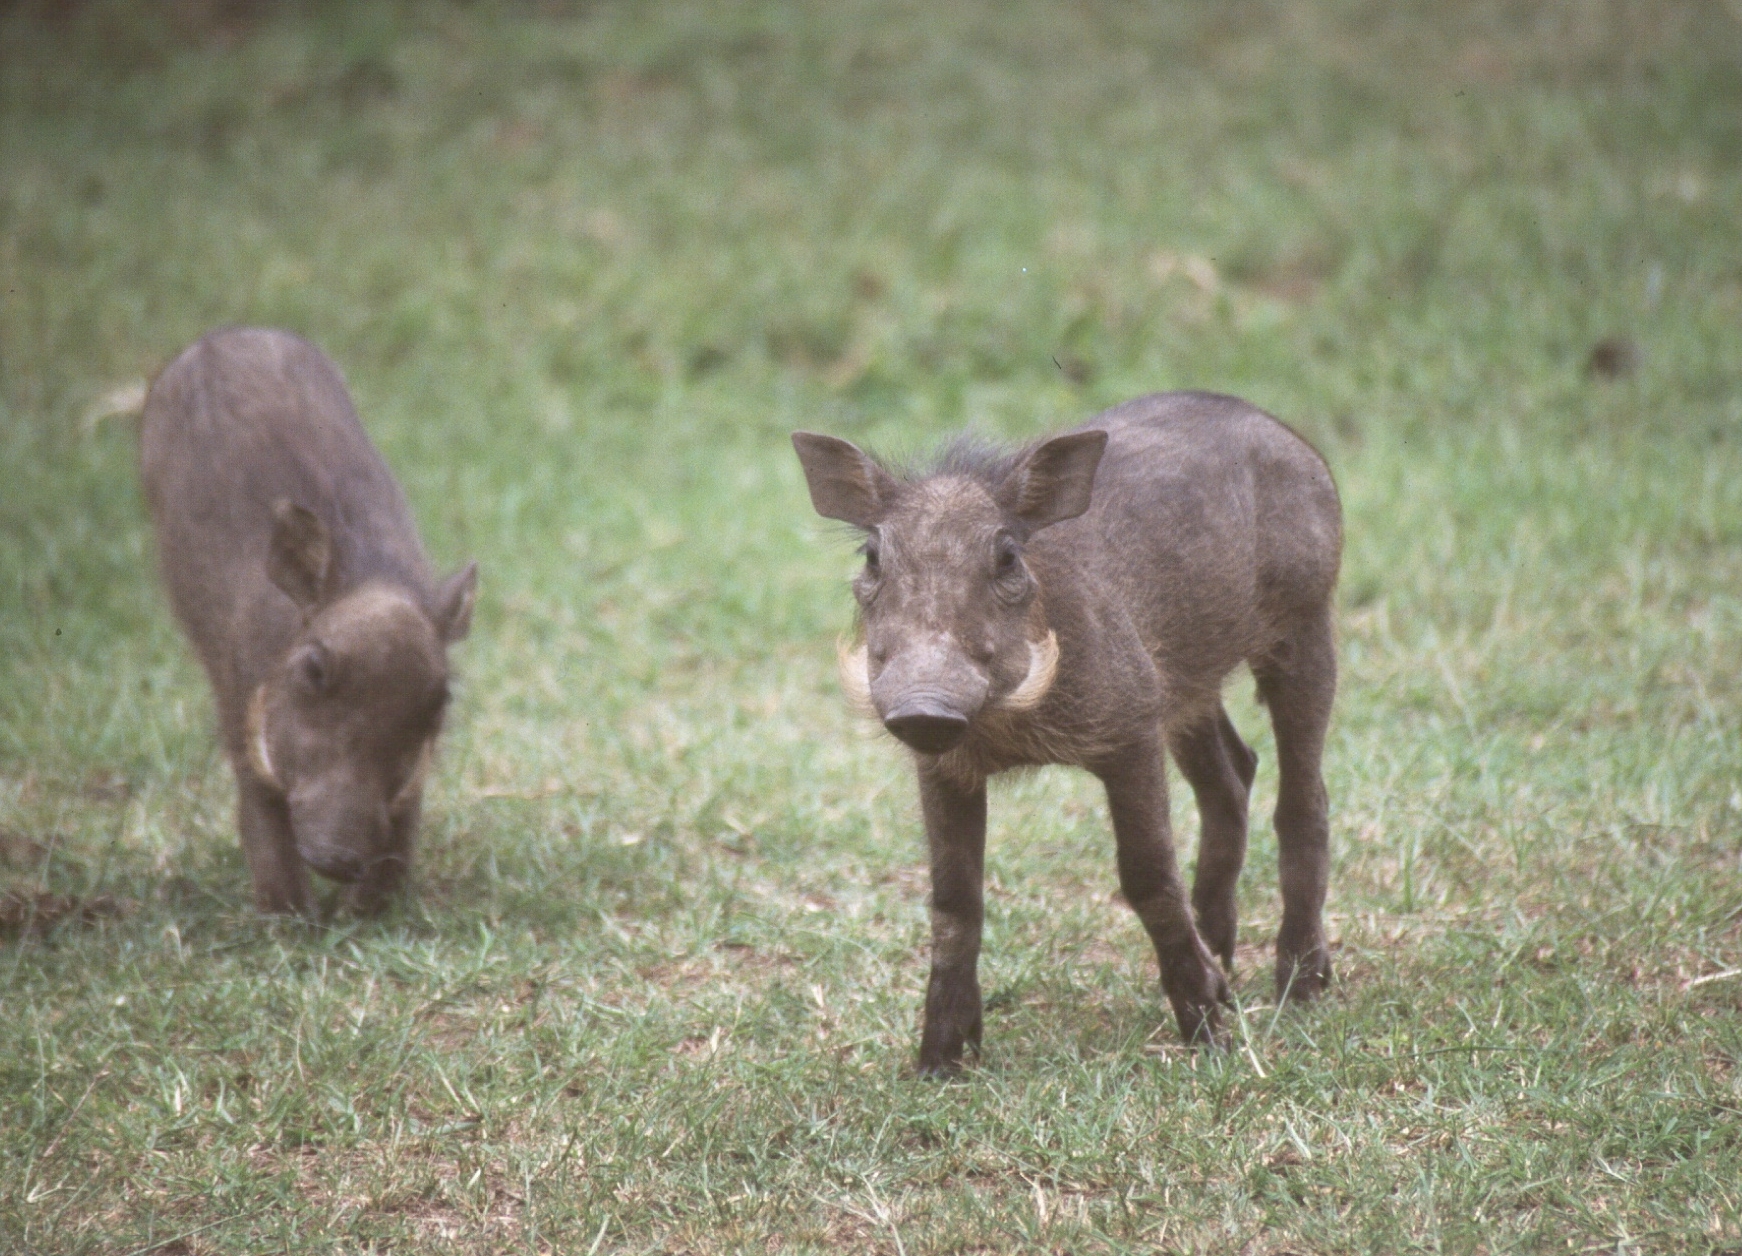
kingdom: Animalia
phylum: Chordata
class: Mammalia
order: Artiodactyla
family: Suidae
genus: Phacochoerus
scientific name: Phacochoerus africanus
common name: Common warthog
